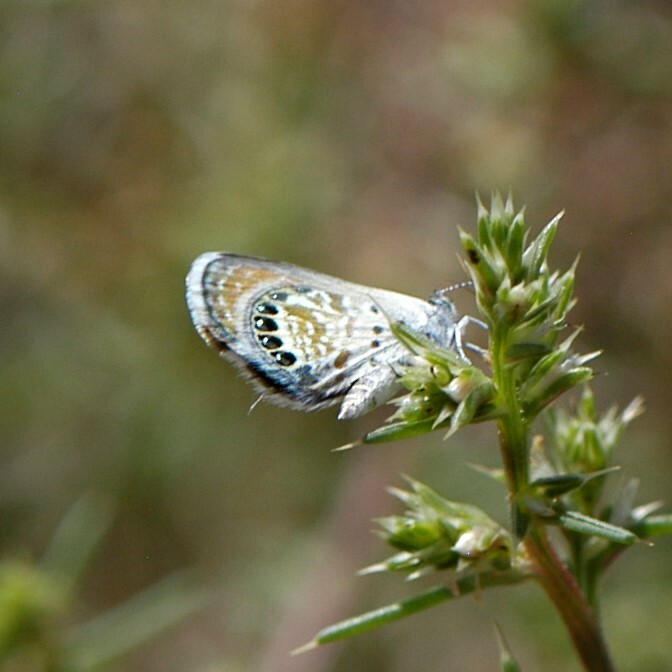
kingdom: Animalia
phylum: Arthropoda
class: Insecta
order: Lepidoptera
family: Lycaenidae
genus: Brephidium
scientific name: Brephidium exilis
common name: Pygmy blue
